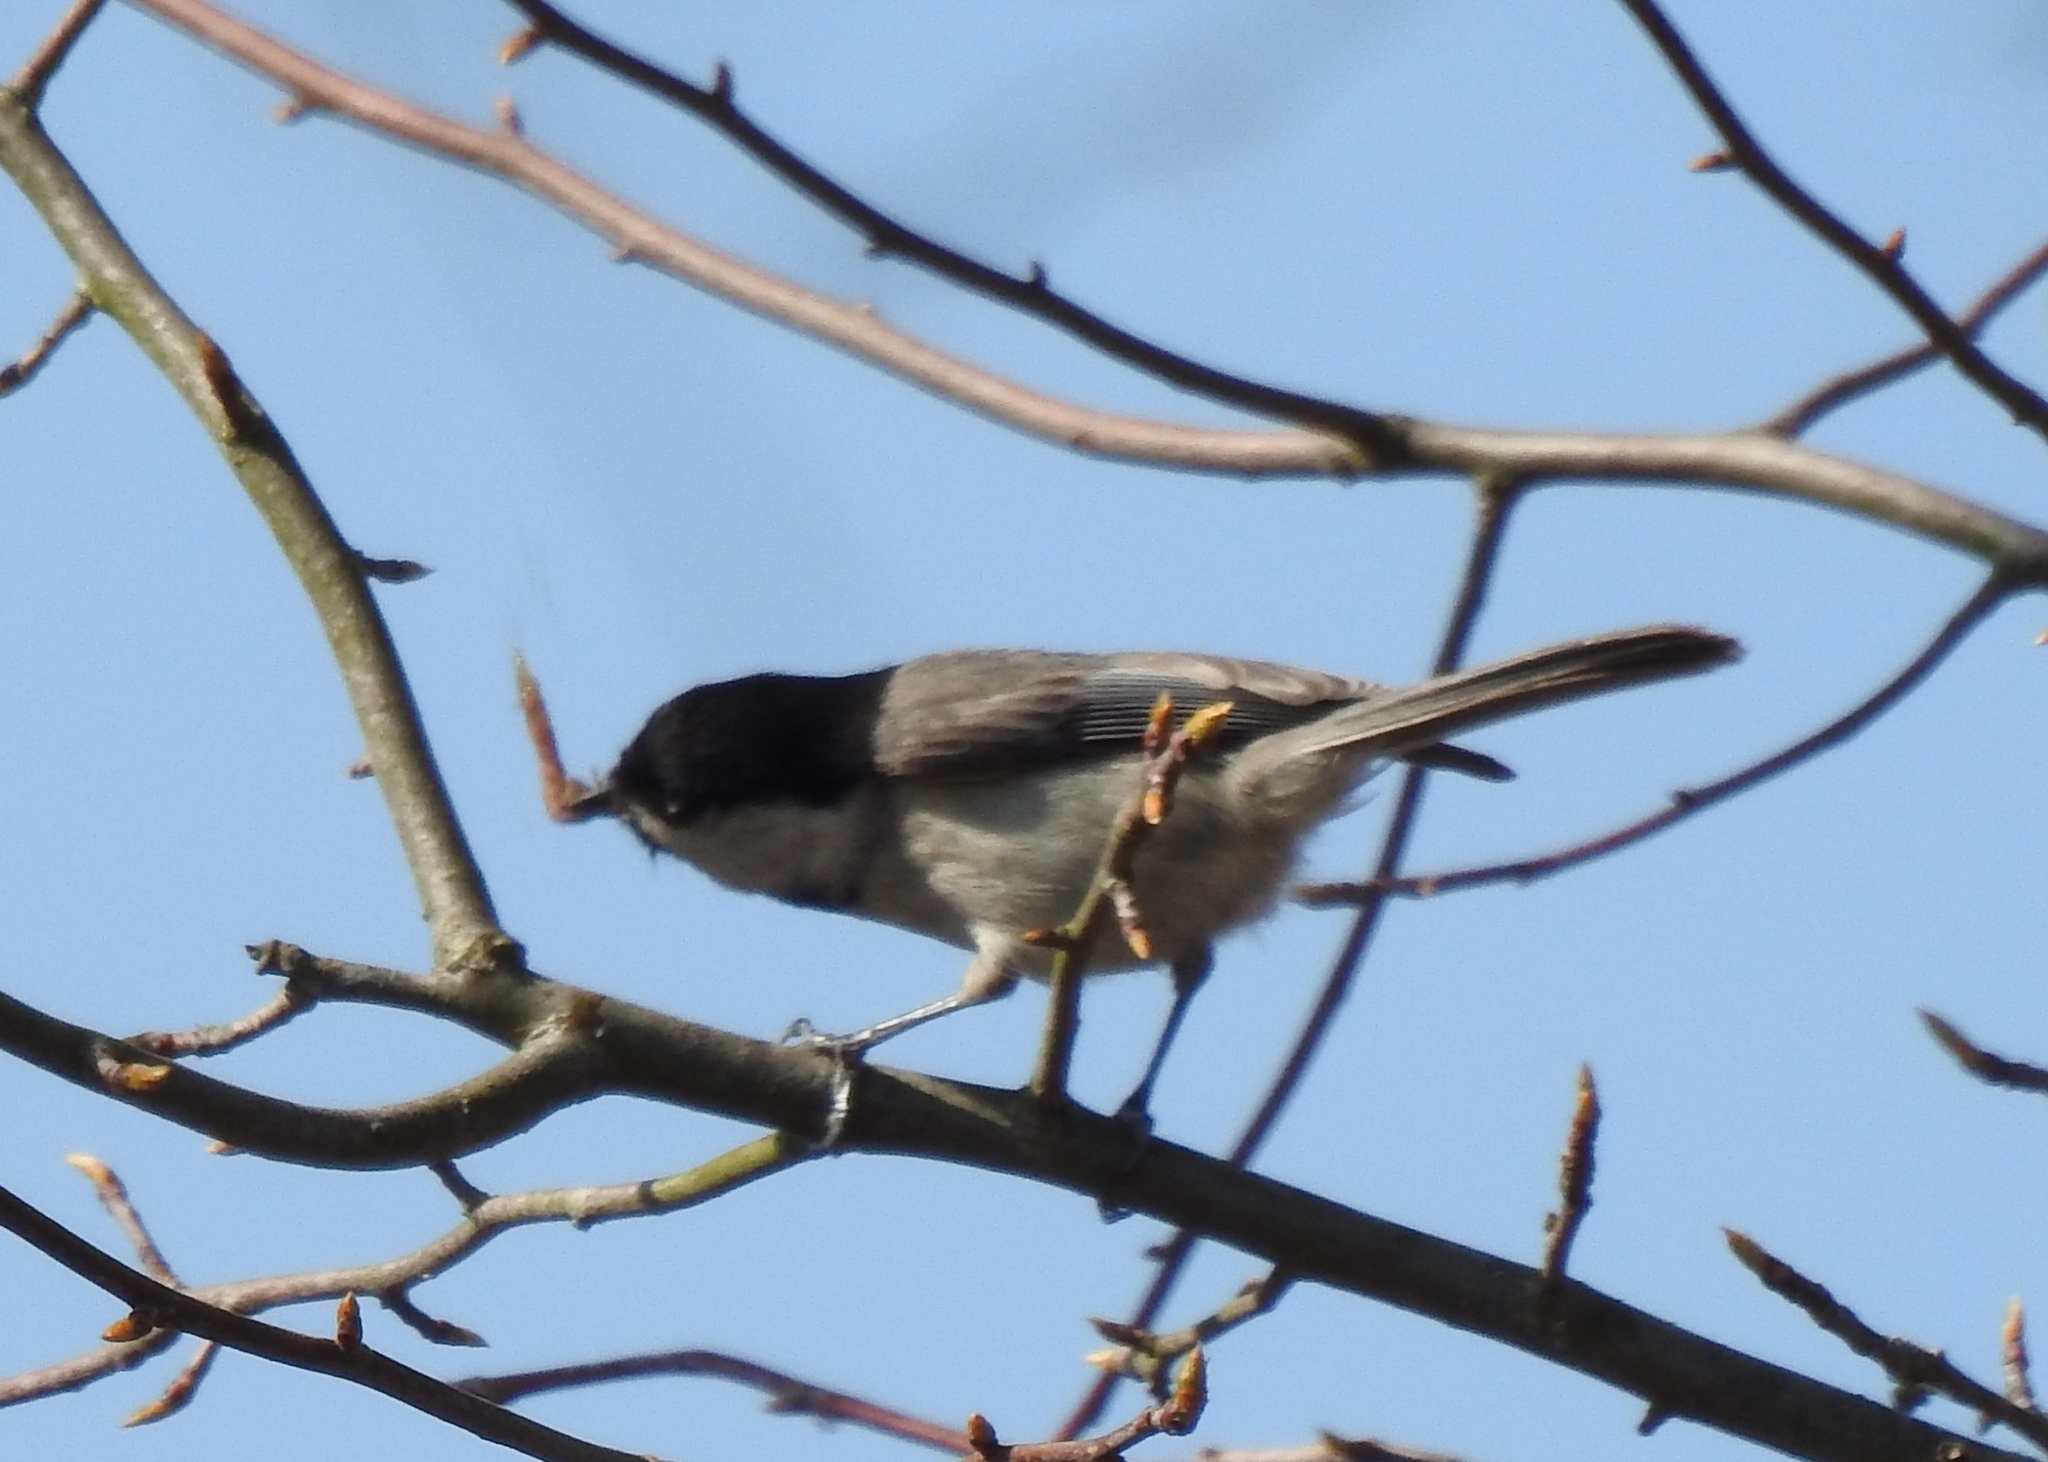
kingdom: Animalia
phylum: Chordata
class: Aves
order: Passeriformes
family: Paridae
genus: Poecile
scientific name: Poecile carolinensis
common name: Carolina chickadee
